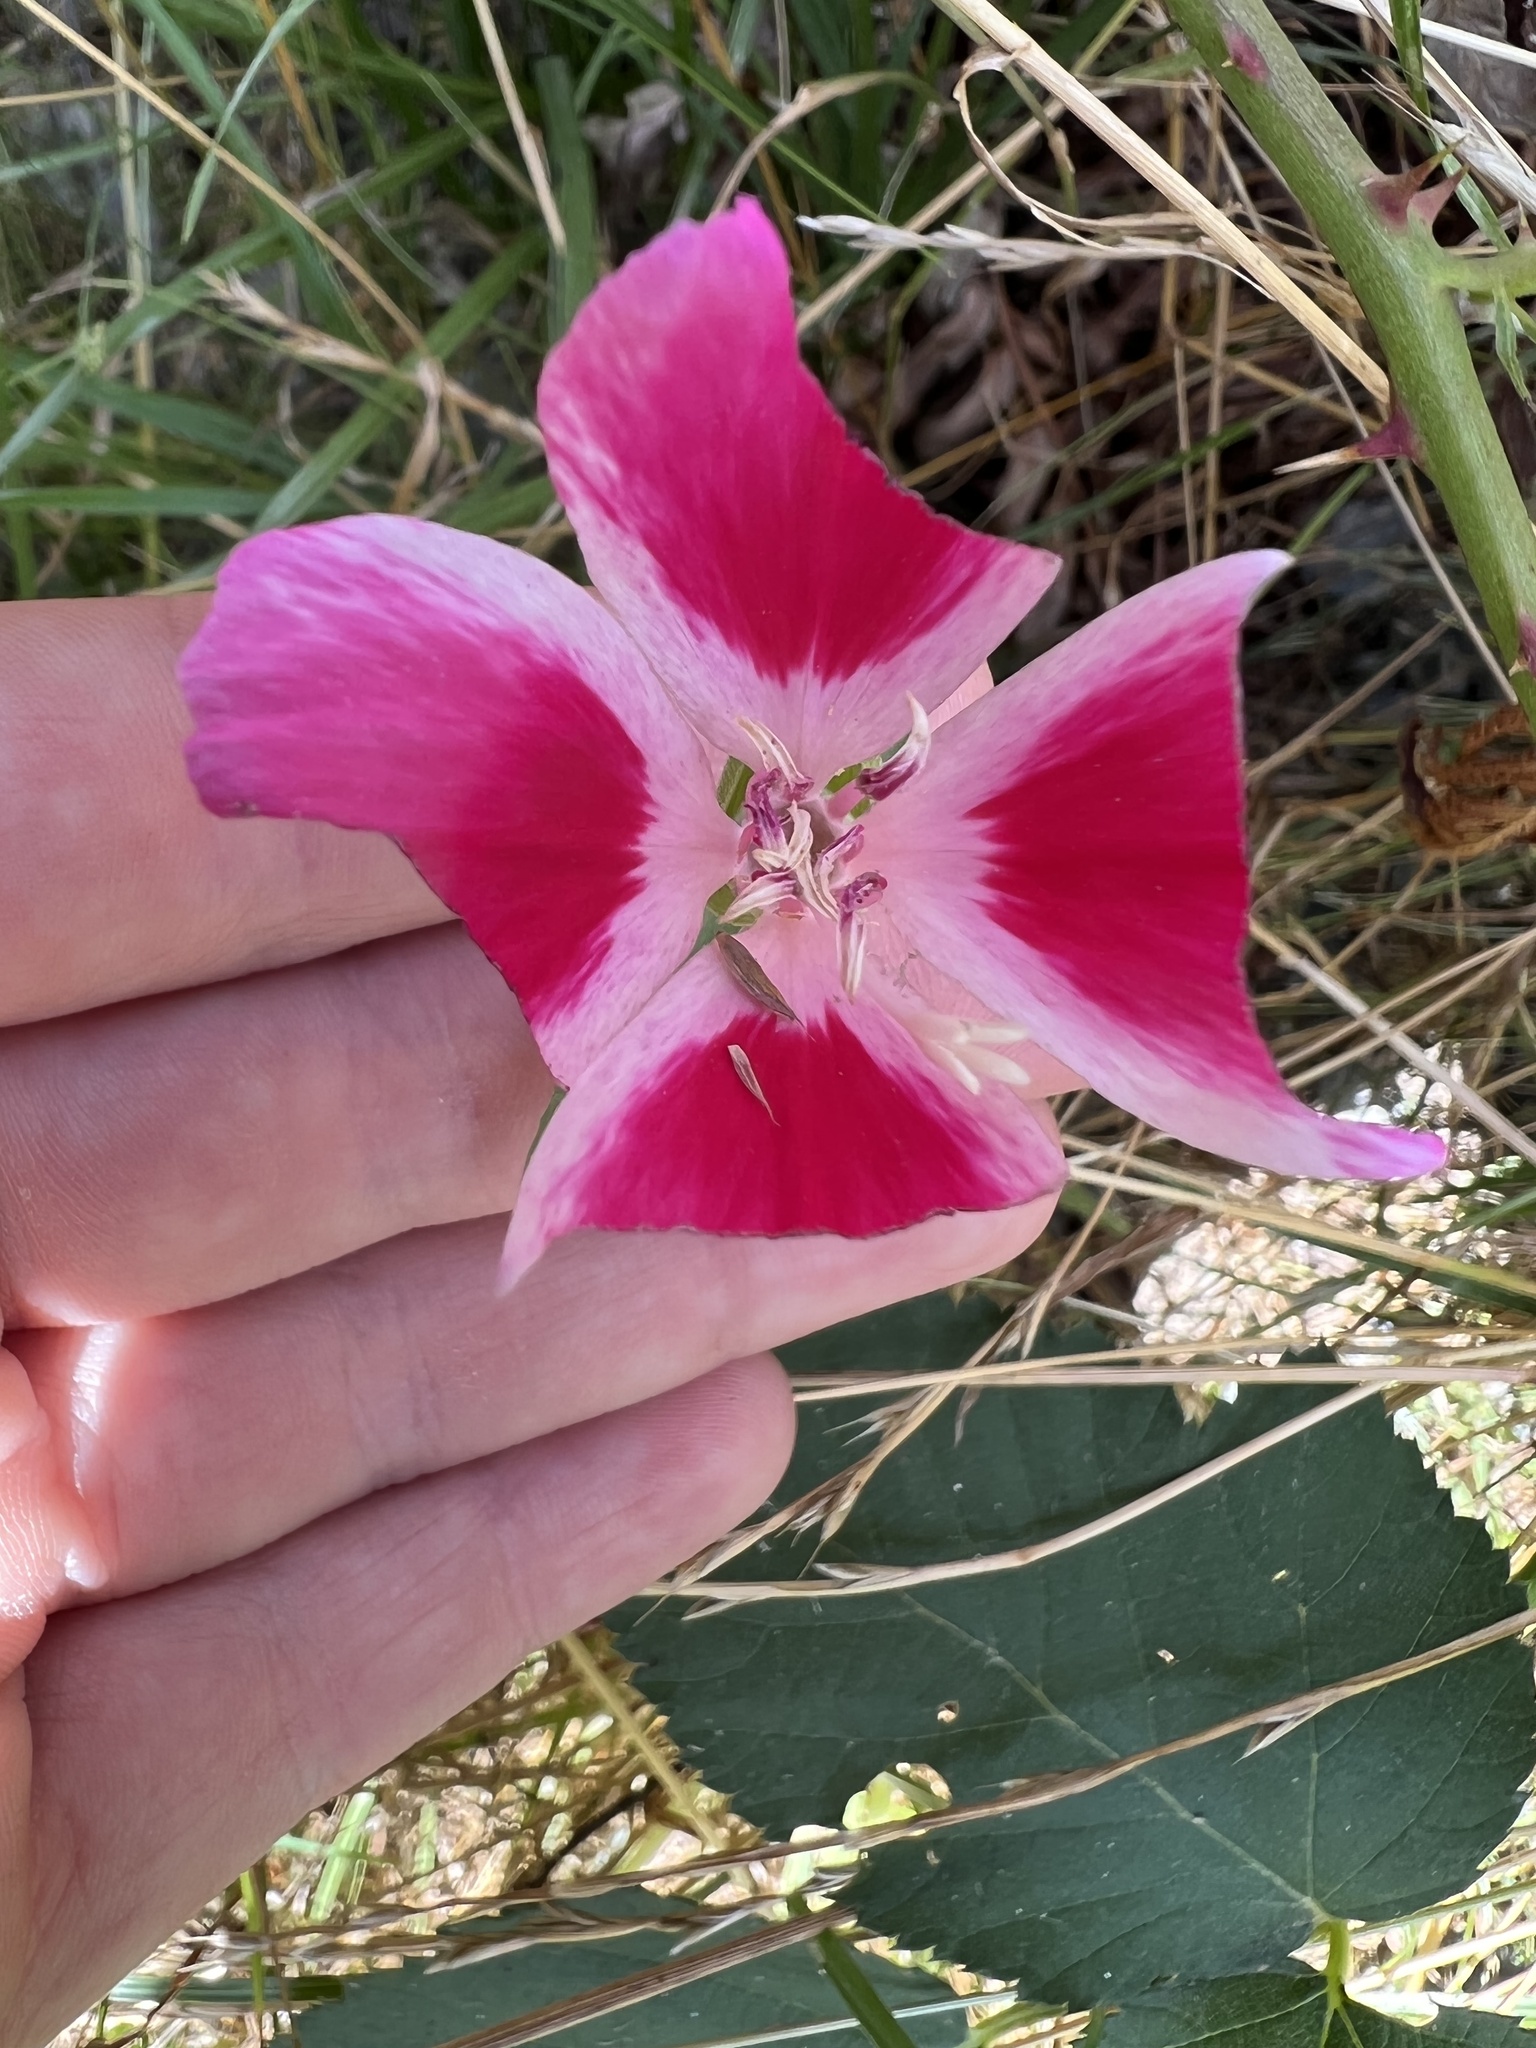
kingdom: Plantae
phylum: Tracheophyta
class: Magnoliopsida
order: Myrtales
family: Onagraceae
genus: Clarkia
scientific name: Clarkia amoena
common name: Godetia
